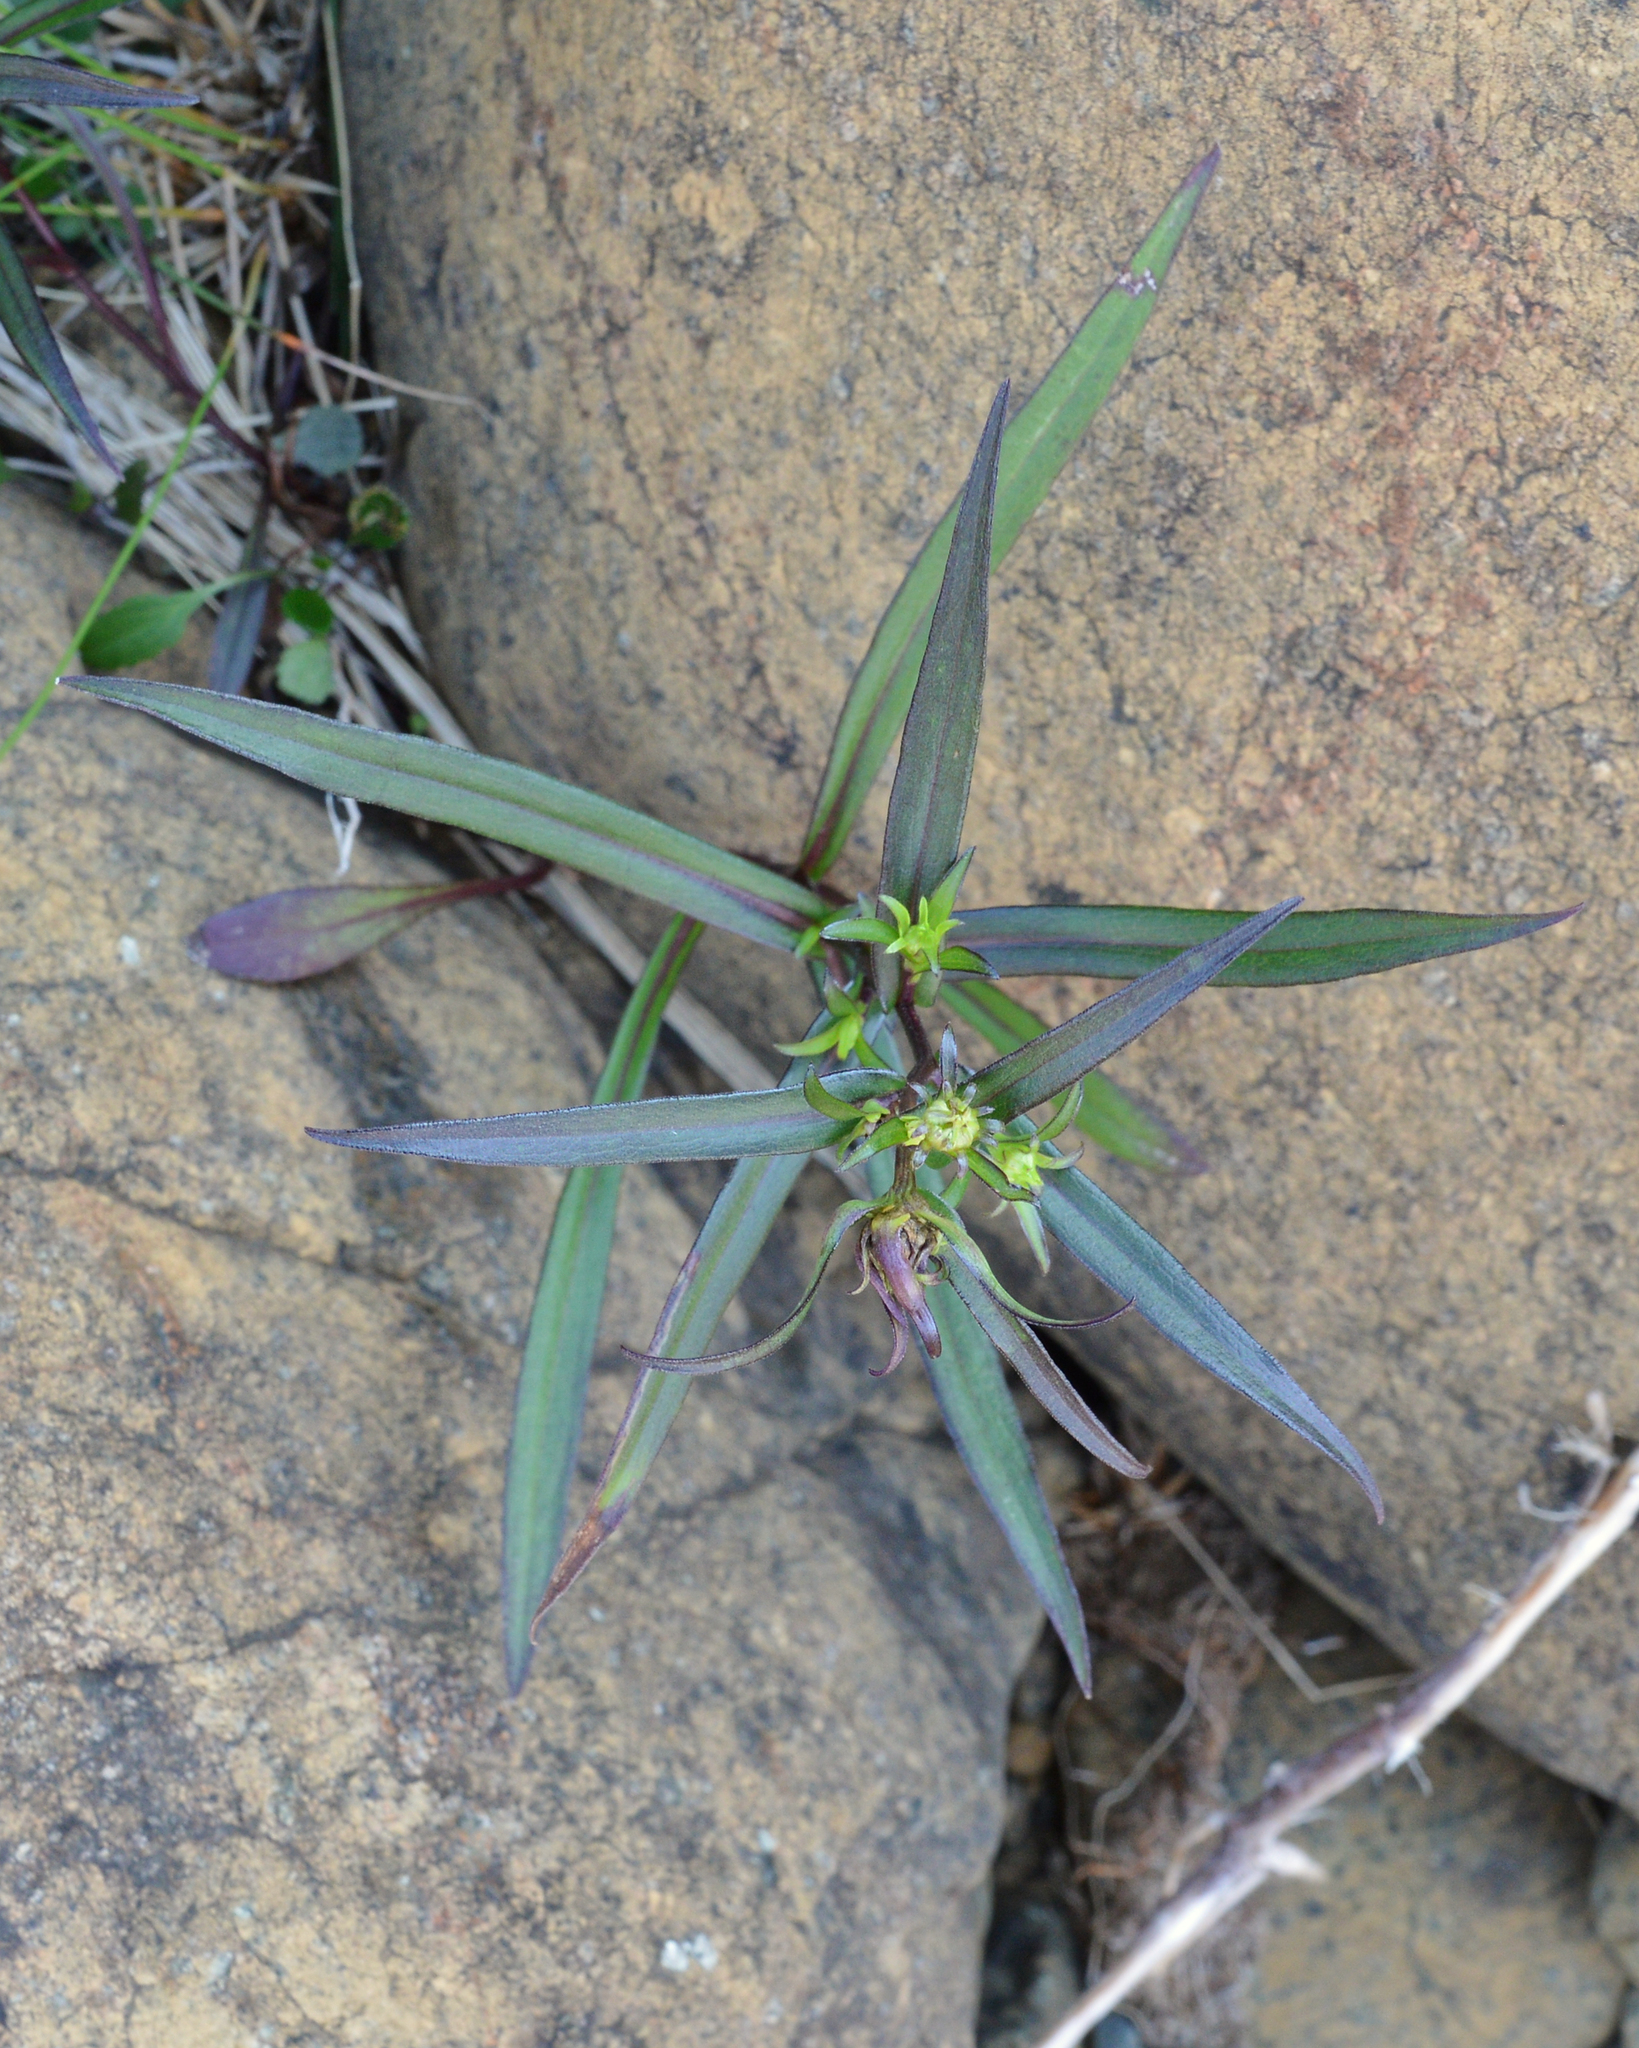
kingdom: Plantae
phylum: Tracheophyta
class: Magnoliopsida
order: Asterales
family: Asteraceae
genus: Symphyotrichum
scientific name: Symphyotrichum novi-belgii
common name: Michaelmas daisy
